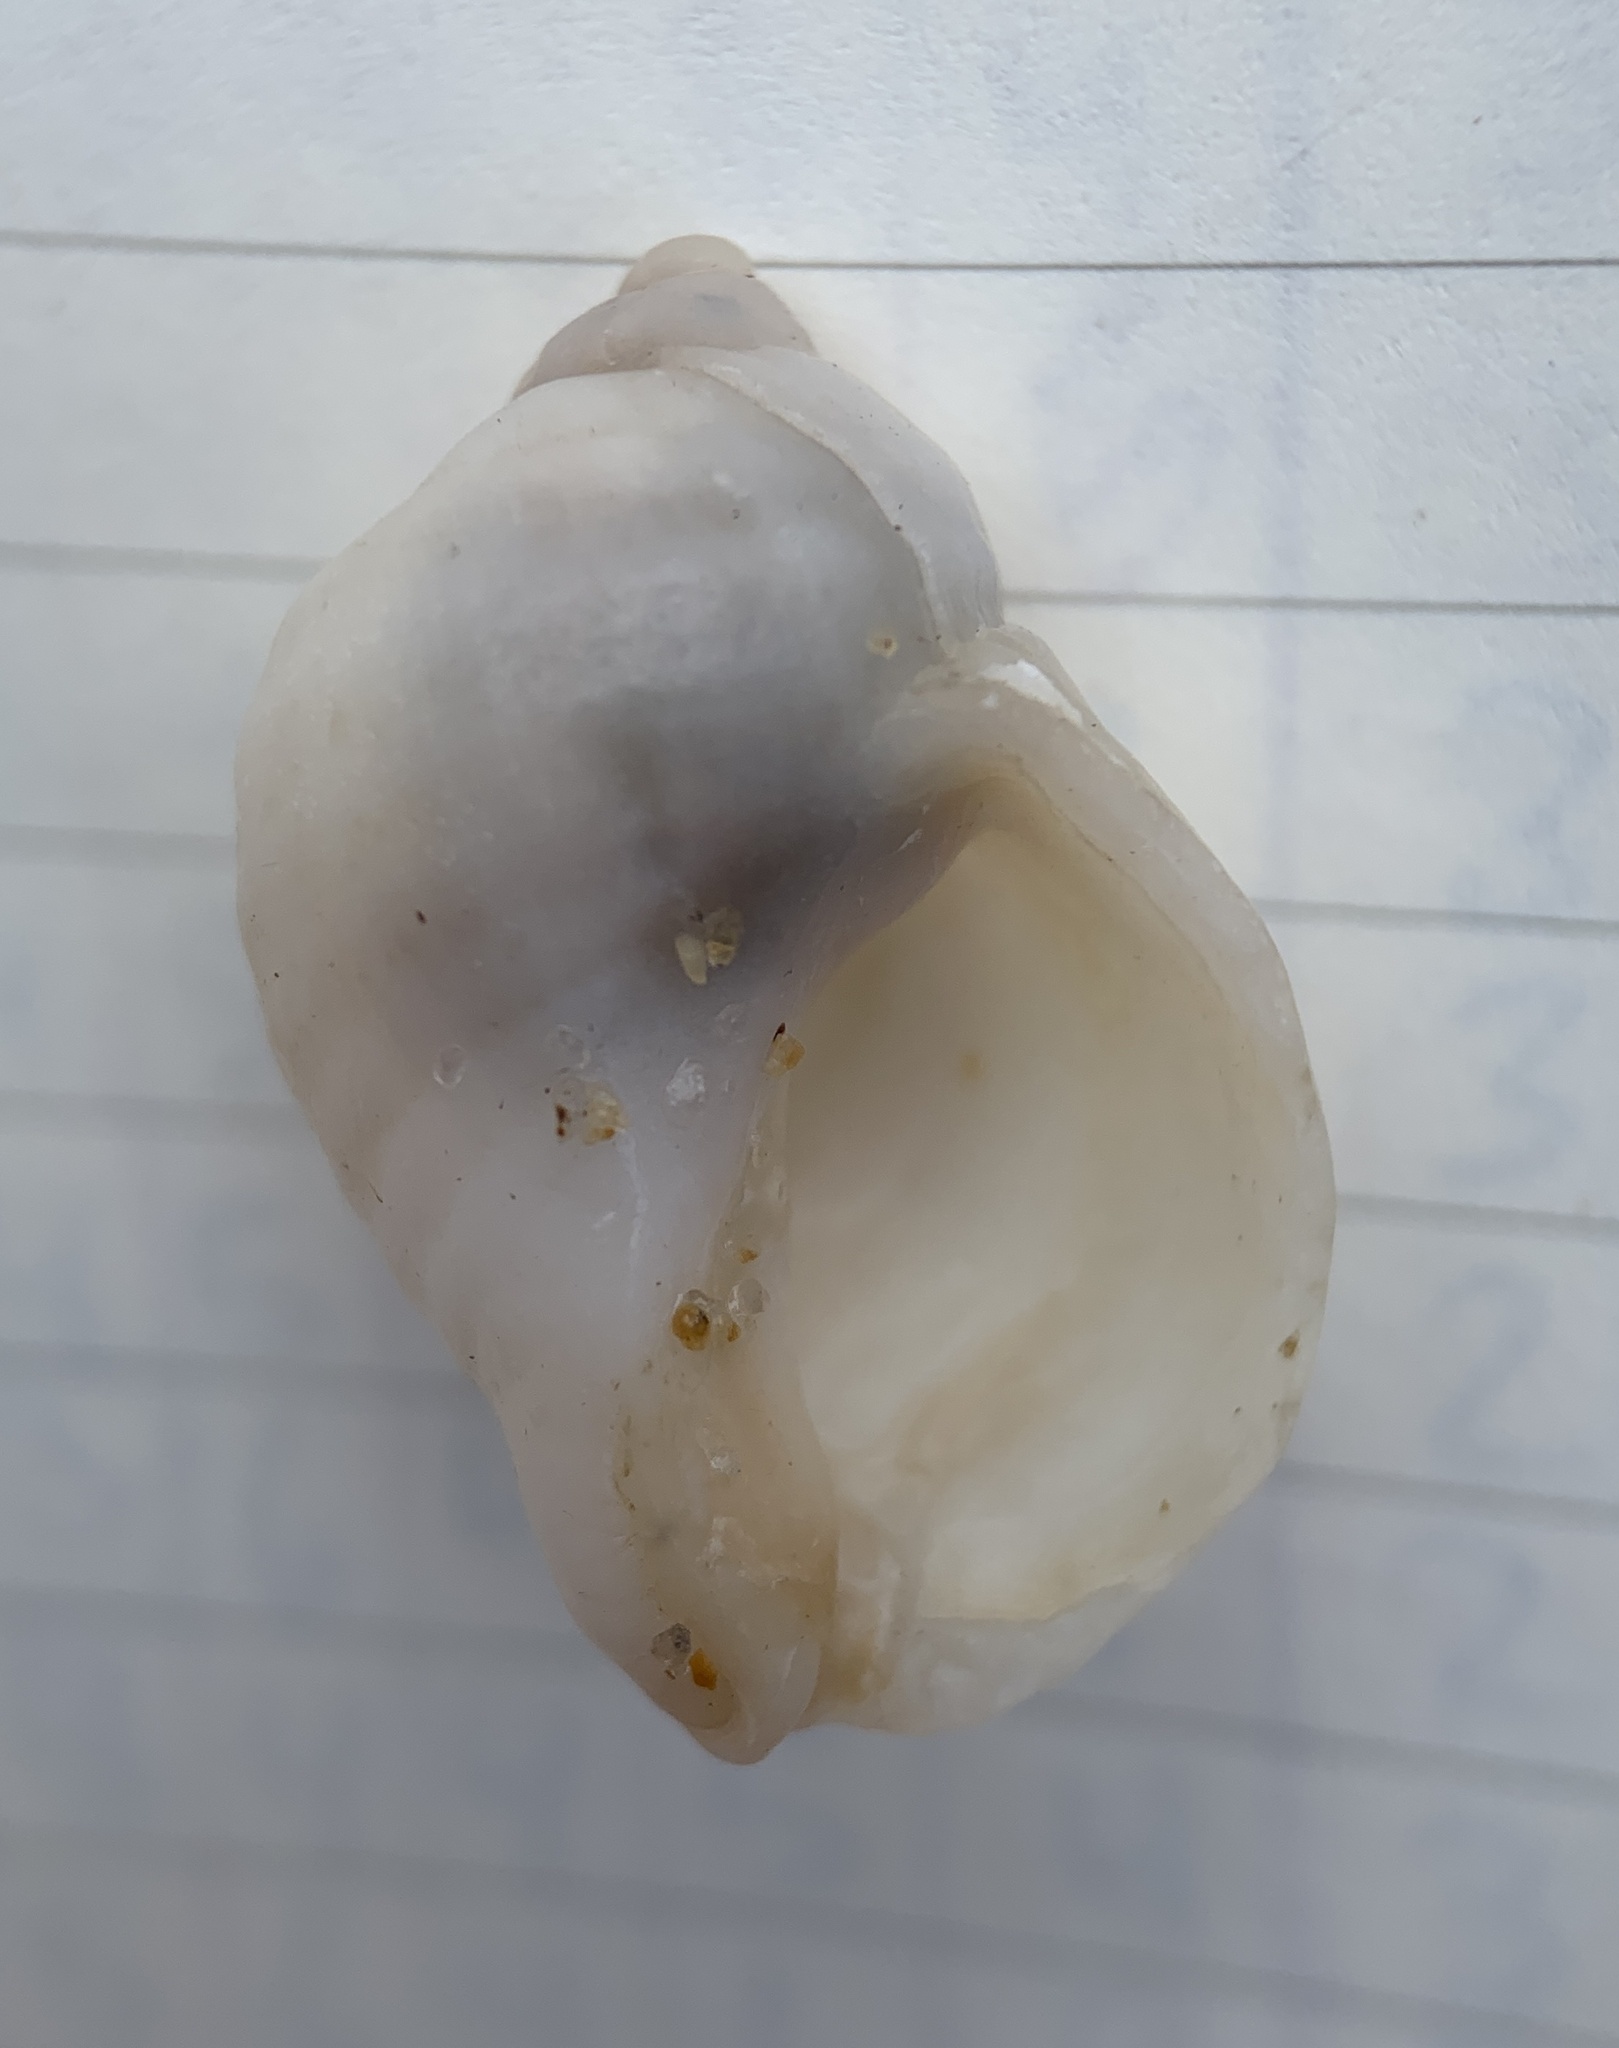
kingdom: Animalia
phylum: Mollusca
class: Gastropoda
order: Neogastropoda
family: Muricidae
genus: Nucella
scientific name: Nucella lapillus
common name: Dog whelk
